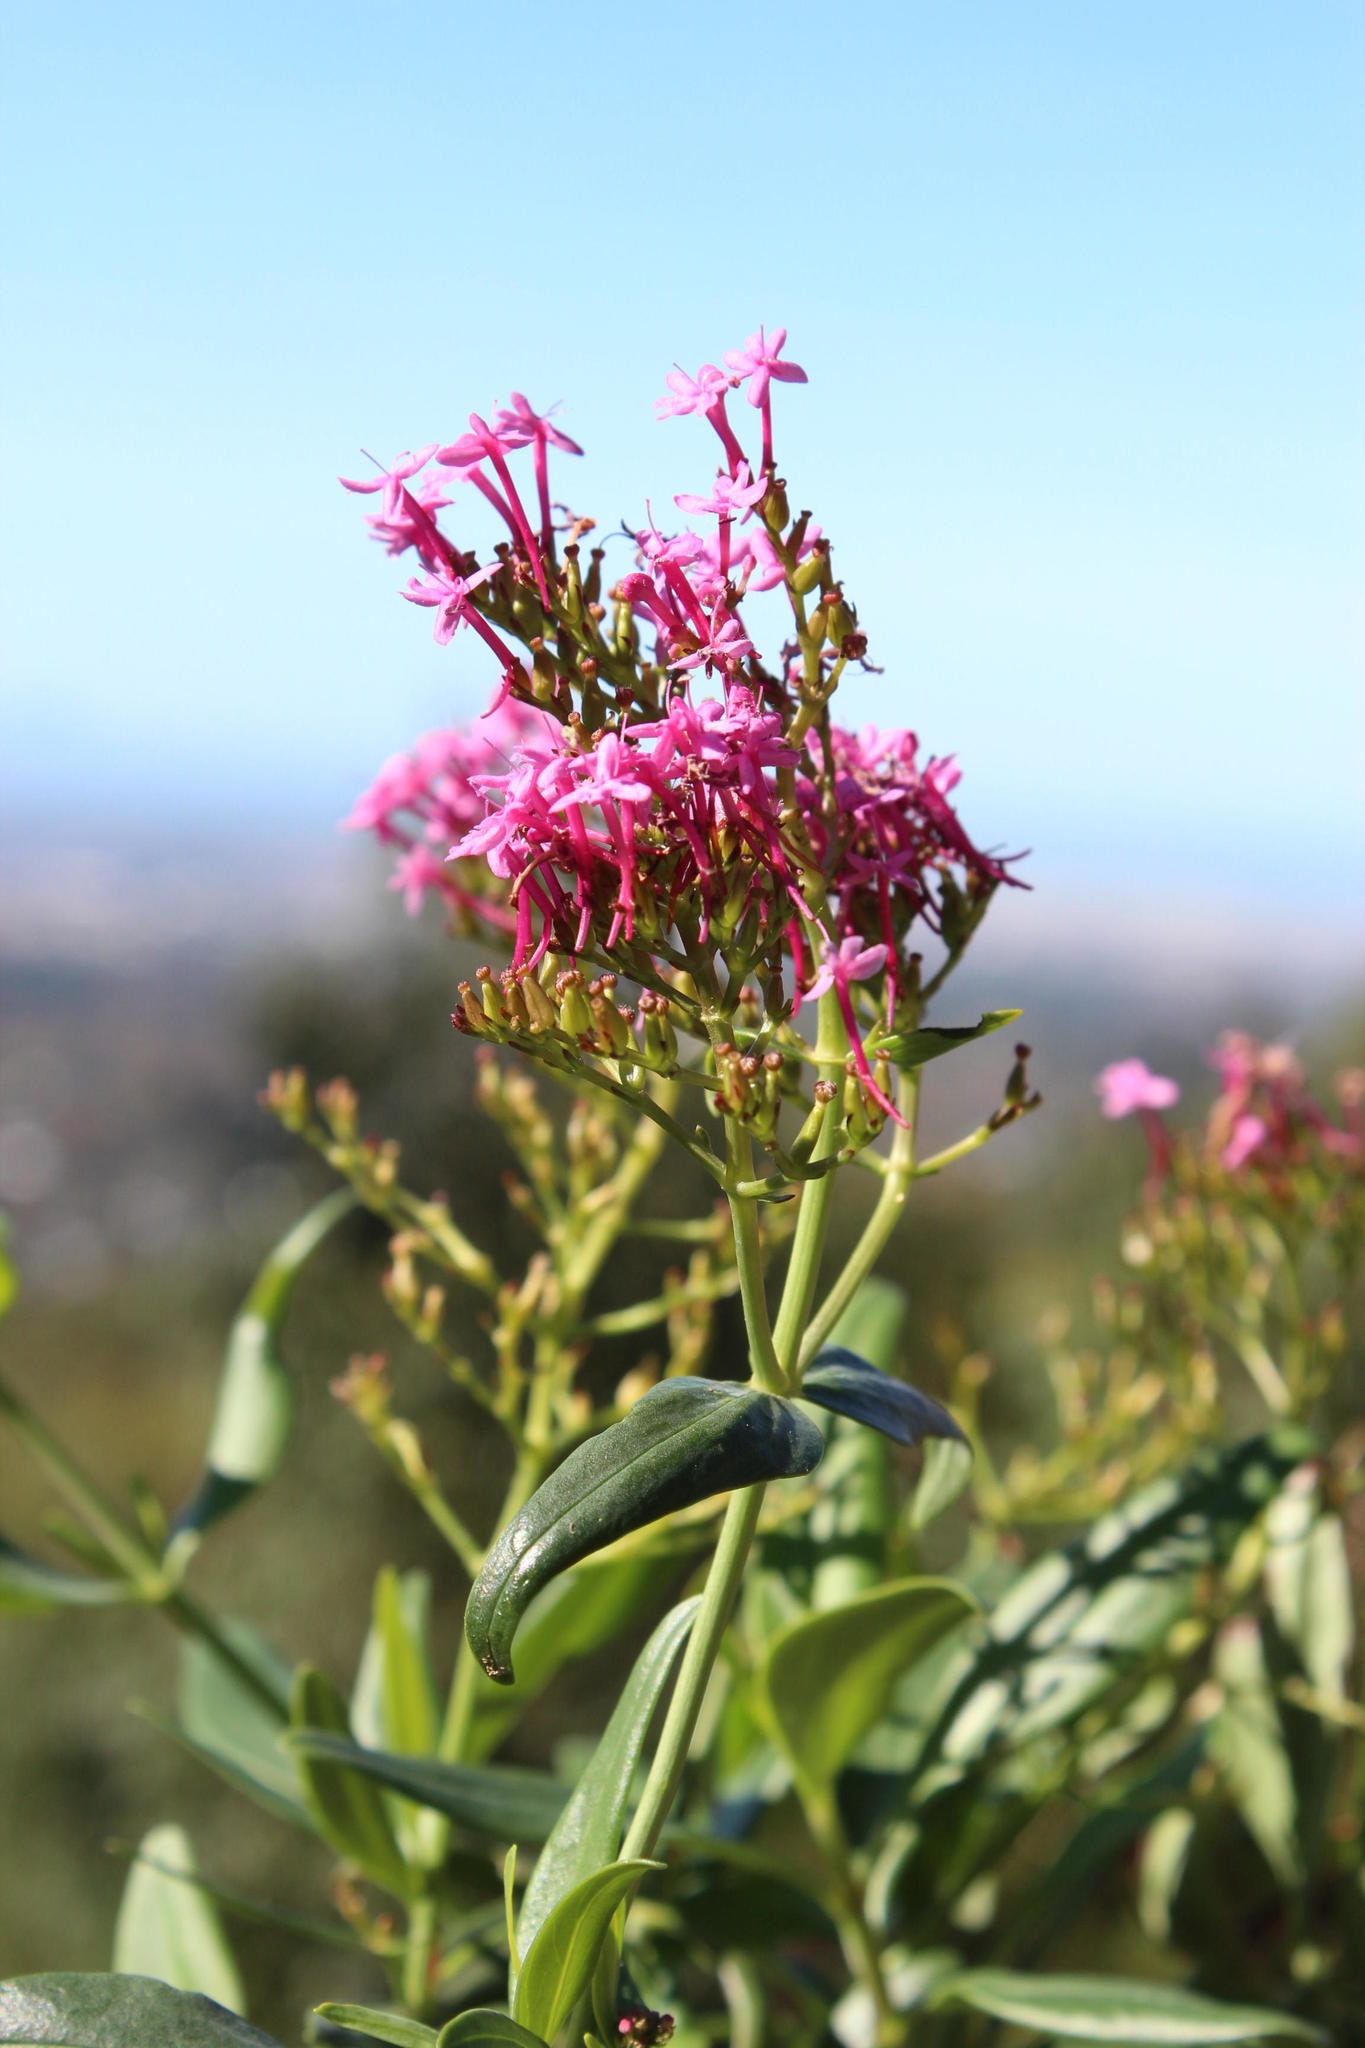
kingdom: Plantae
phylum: Tracheophyta
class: Magnoliopsida
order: Dipsacales
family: Caprifoliaceae
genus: Centranthus
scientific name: Centranthus ruber
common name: Red valerian
